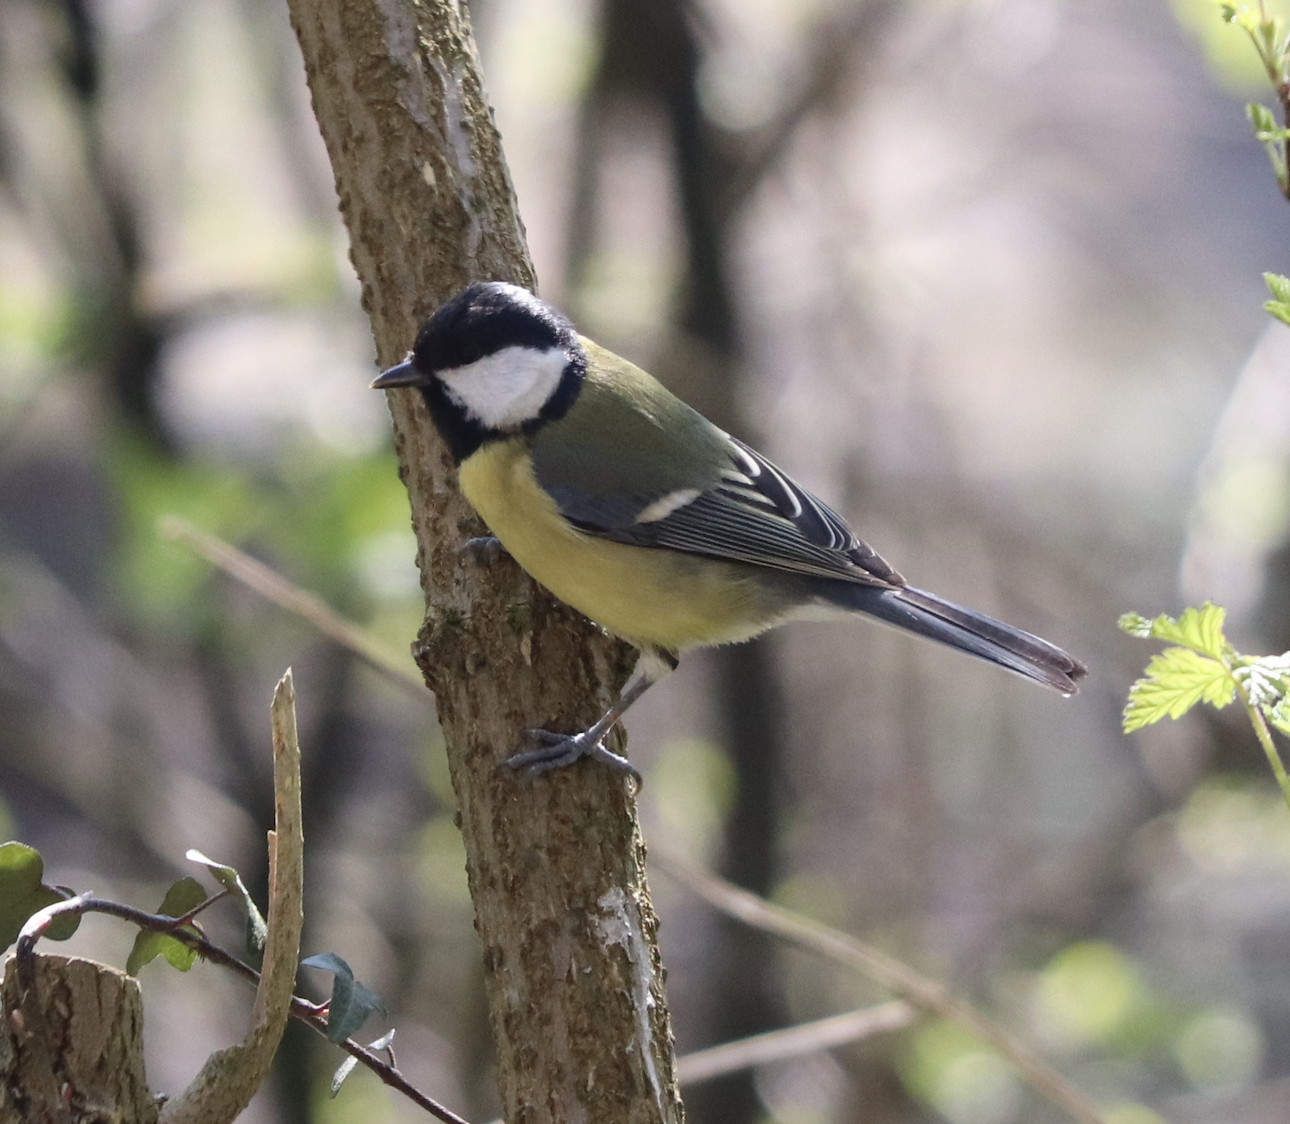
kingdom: Animalia
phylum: Chordata
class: Aves
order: Passeriformes
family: Paridae
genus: Parus
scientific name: Parus major
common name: Great tit
